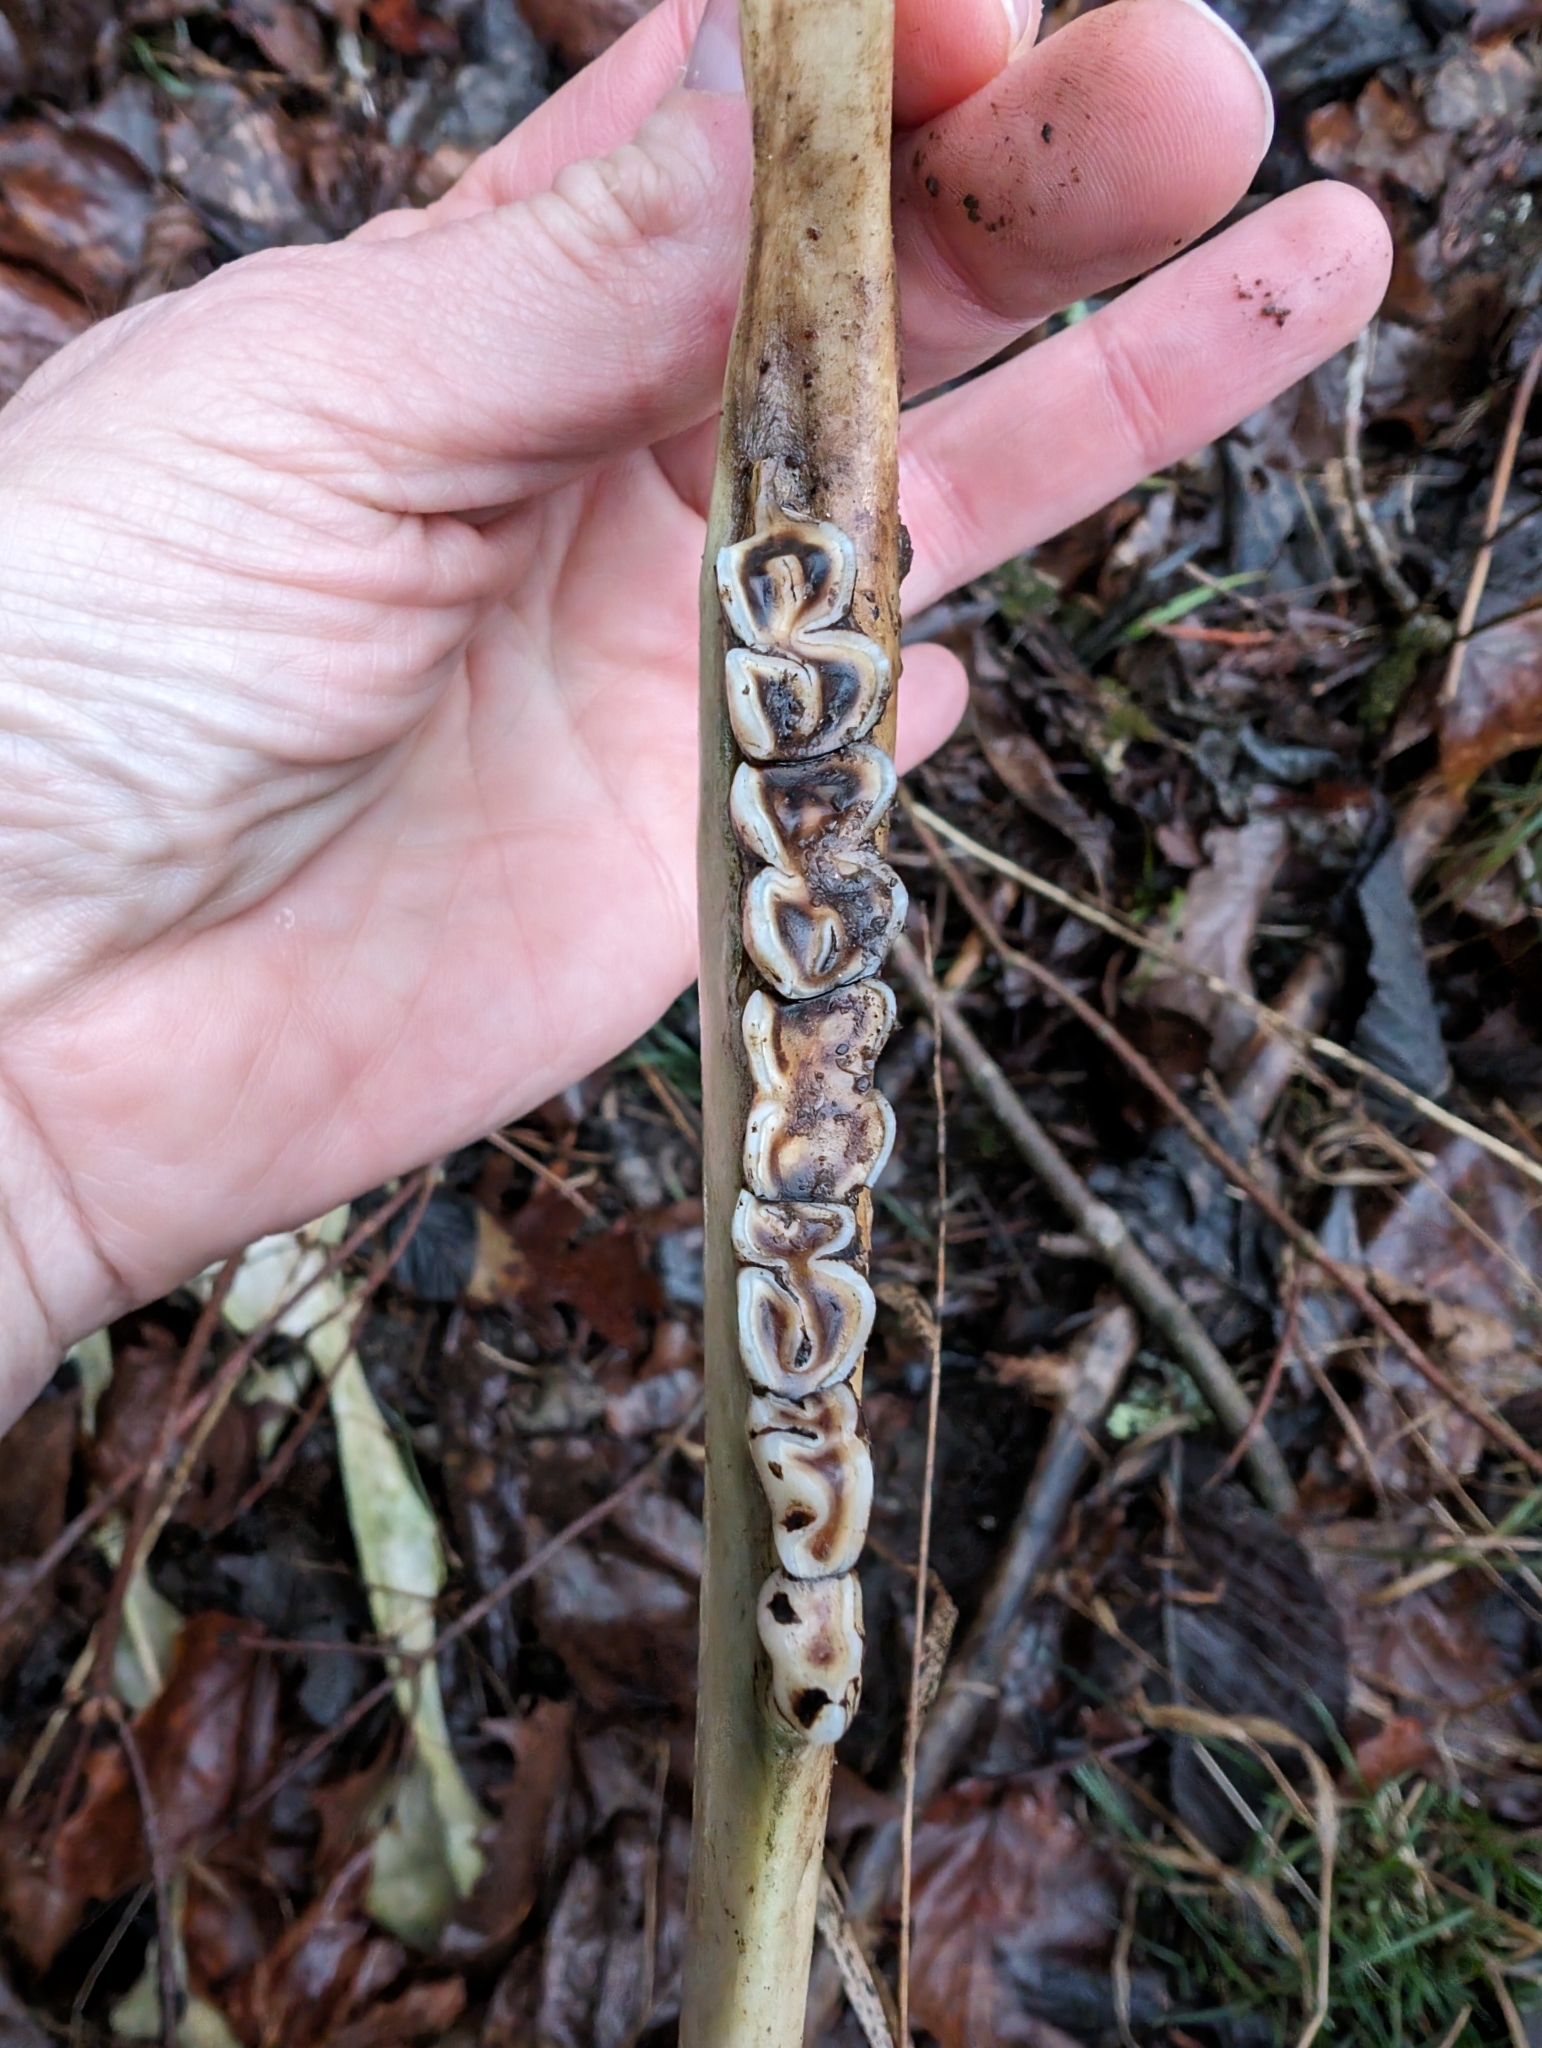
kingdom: Animalia
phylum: Chordata
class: Mammalia
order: Artiodactyla
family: Cervidae
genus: Odocoileus
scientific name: Odocoileus virginianus
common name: White-tailed deer
